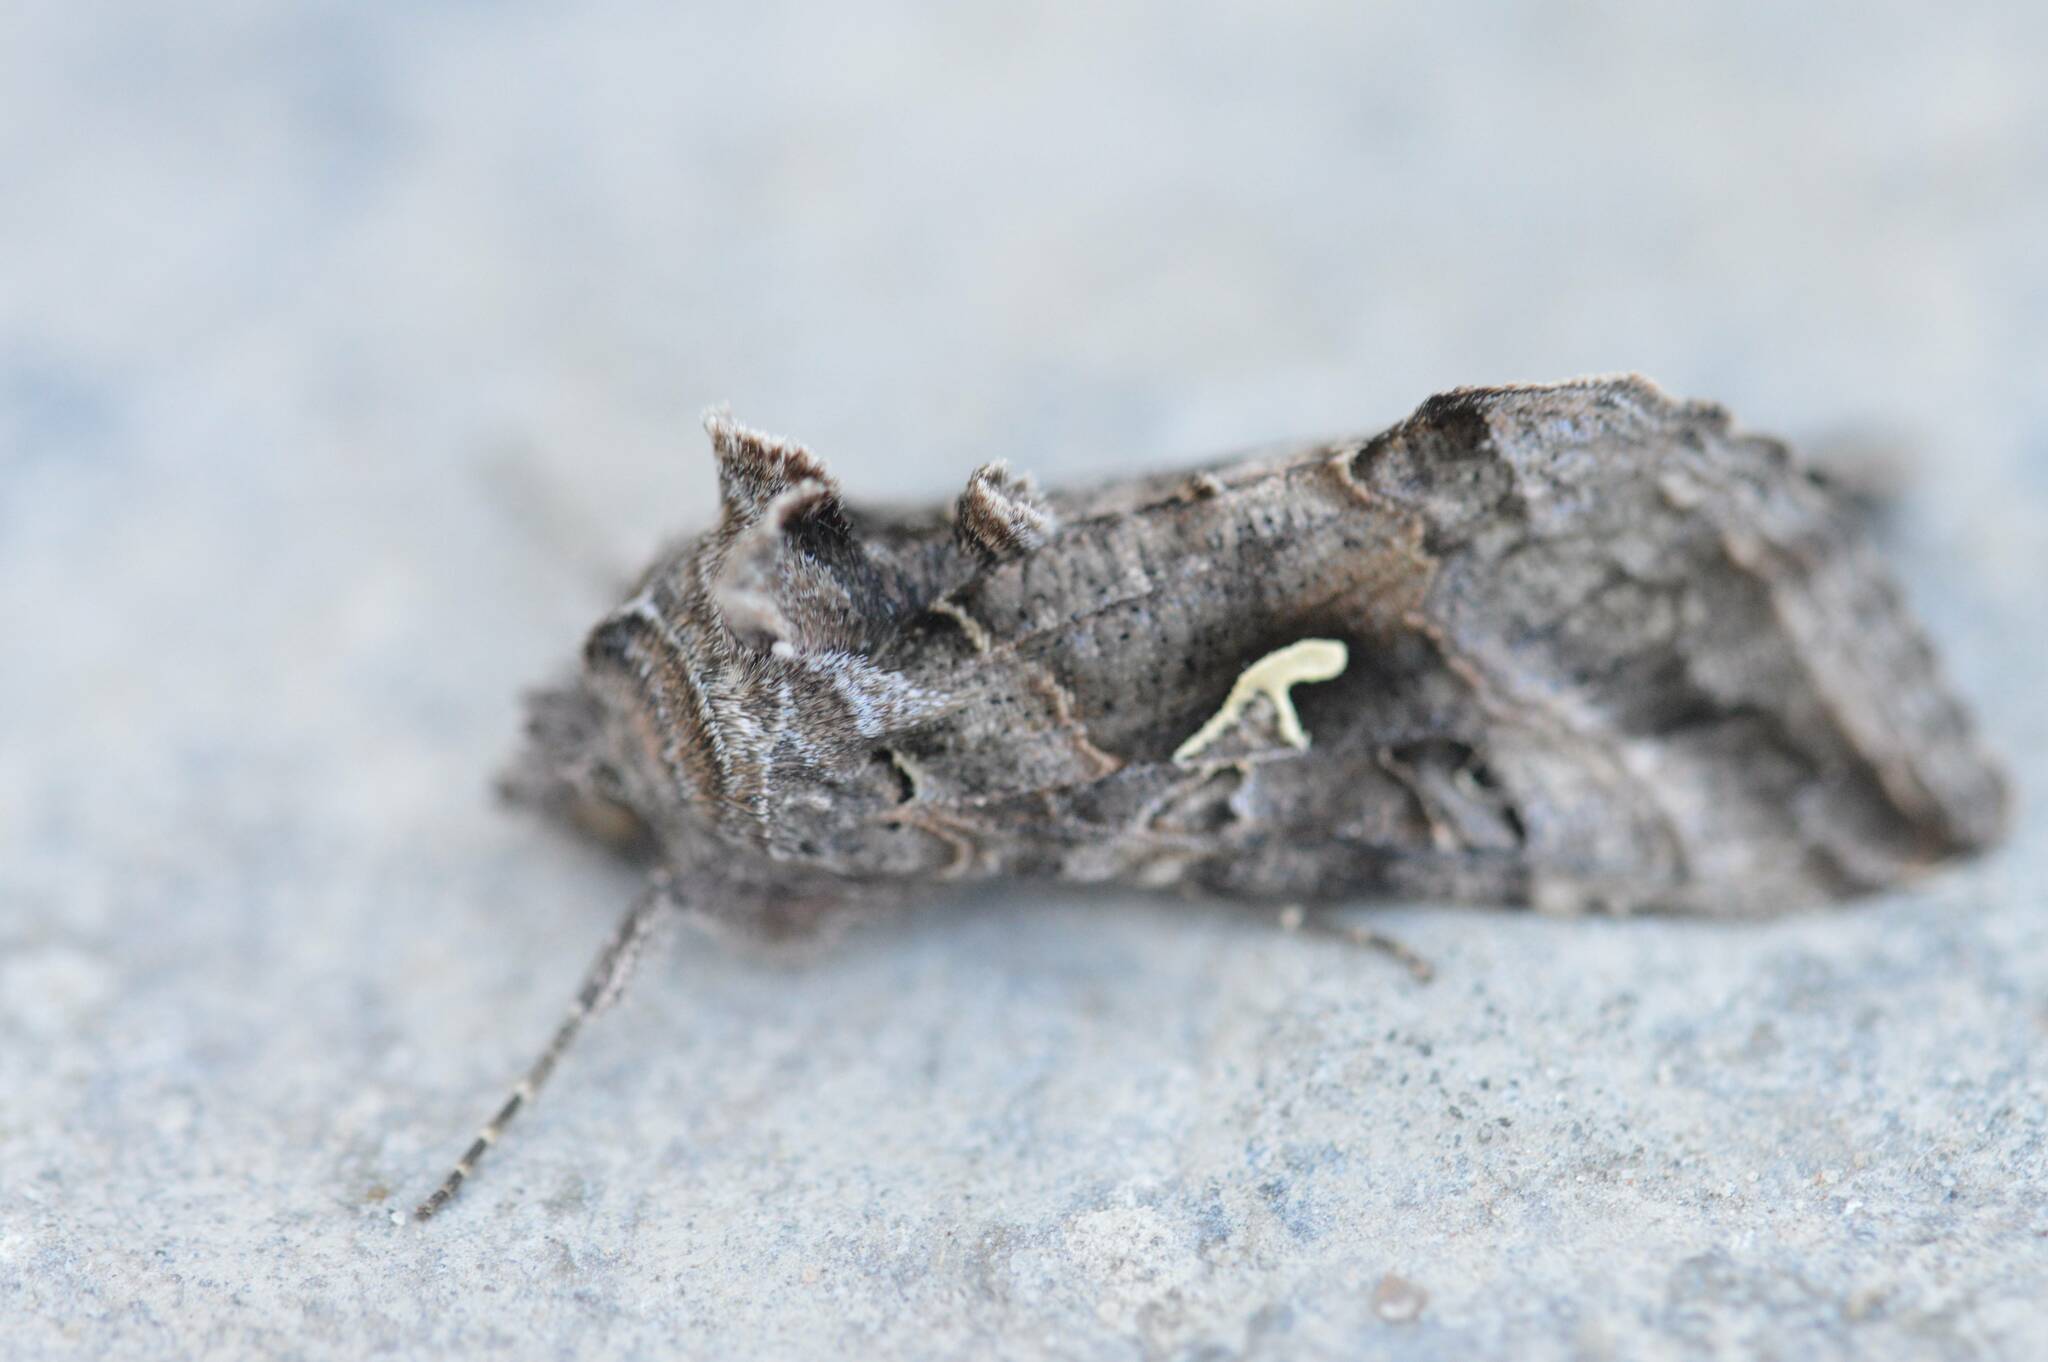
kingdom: Animalia
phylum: Arthropoda
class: Insecta
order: Lepidoptera
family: Noctuidae
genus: Autographa
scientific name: Autographa gamma
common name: Silver y
